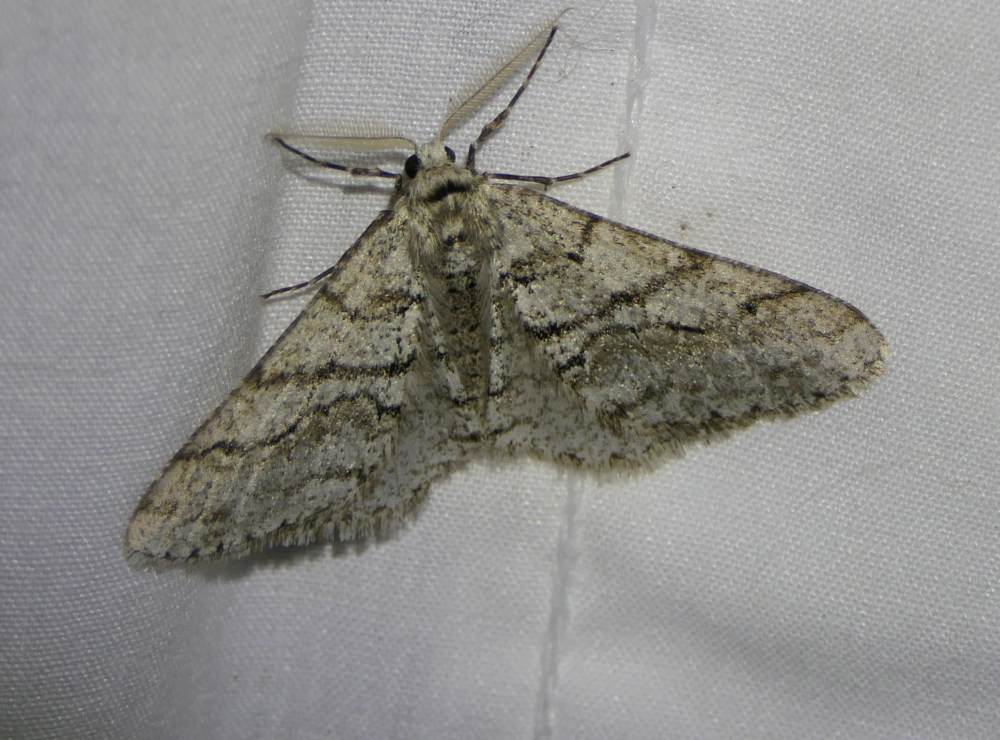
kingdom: Animalia
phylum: Arthropoda
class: Insecta
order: Lepidoptera
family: Geometridae
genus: Phigalia
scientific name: Phigalia titea
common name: Spiny looper
